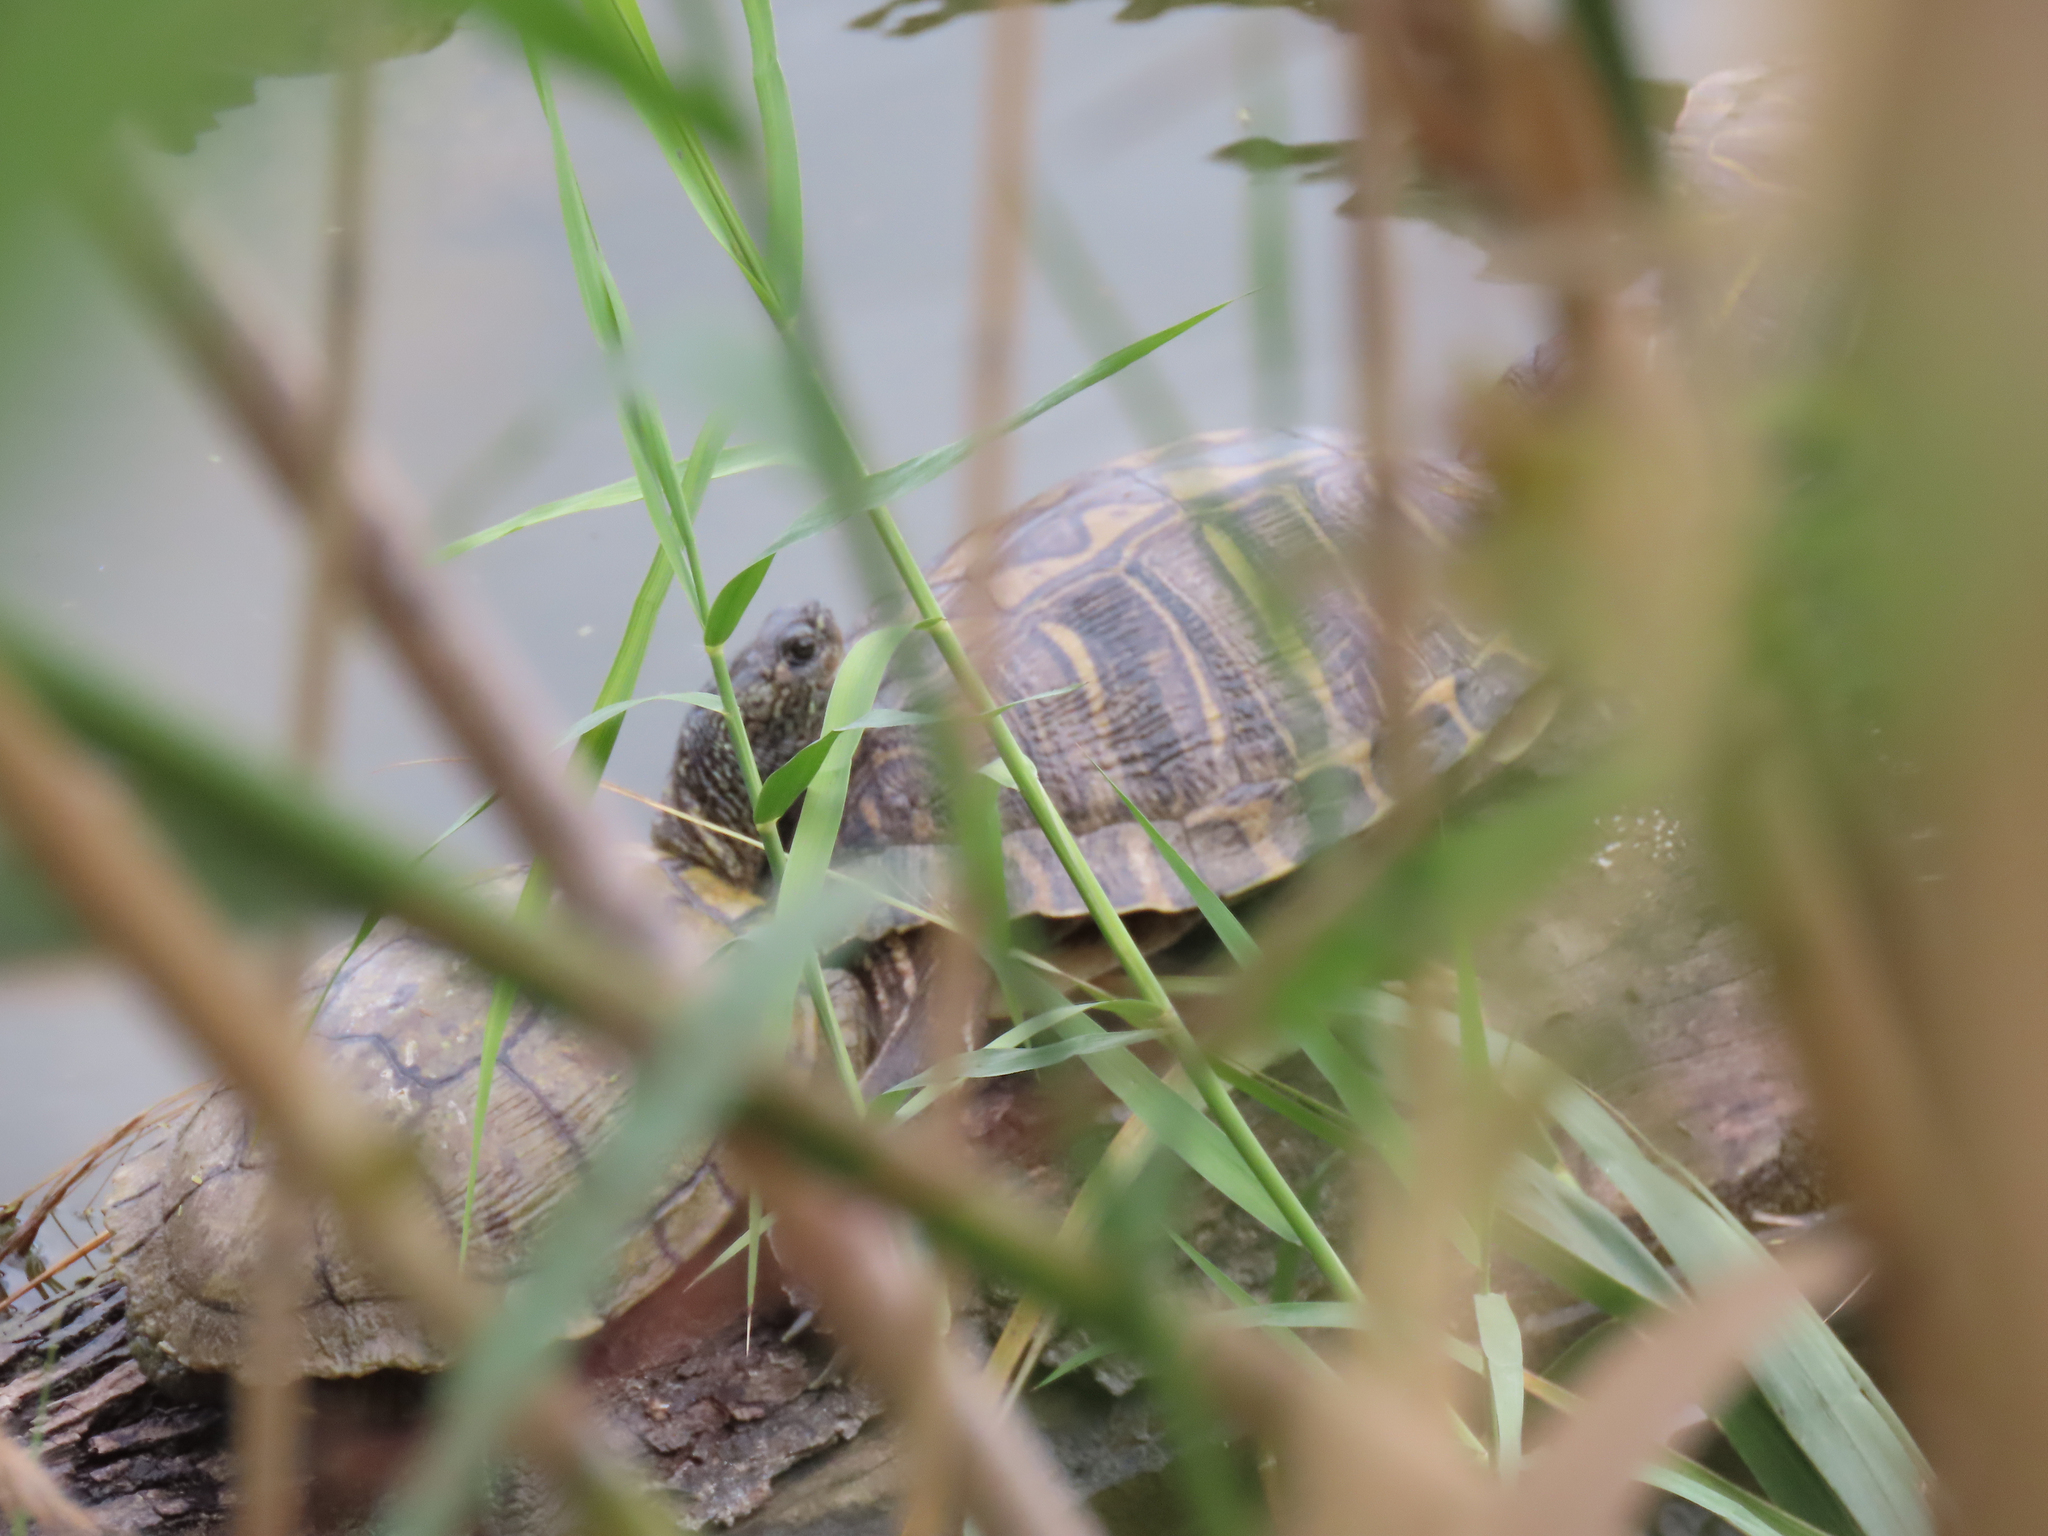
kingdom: Animalia
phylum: Chordata
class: Testudines
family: Emydidae
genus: Trachemys
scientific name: Trachemys scripta
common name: Slider
